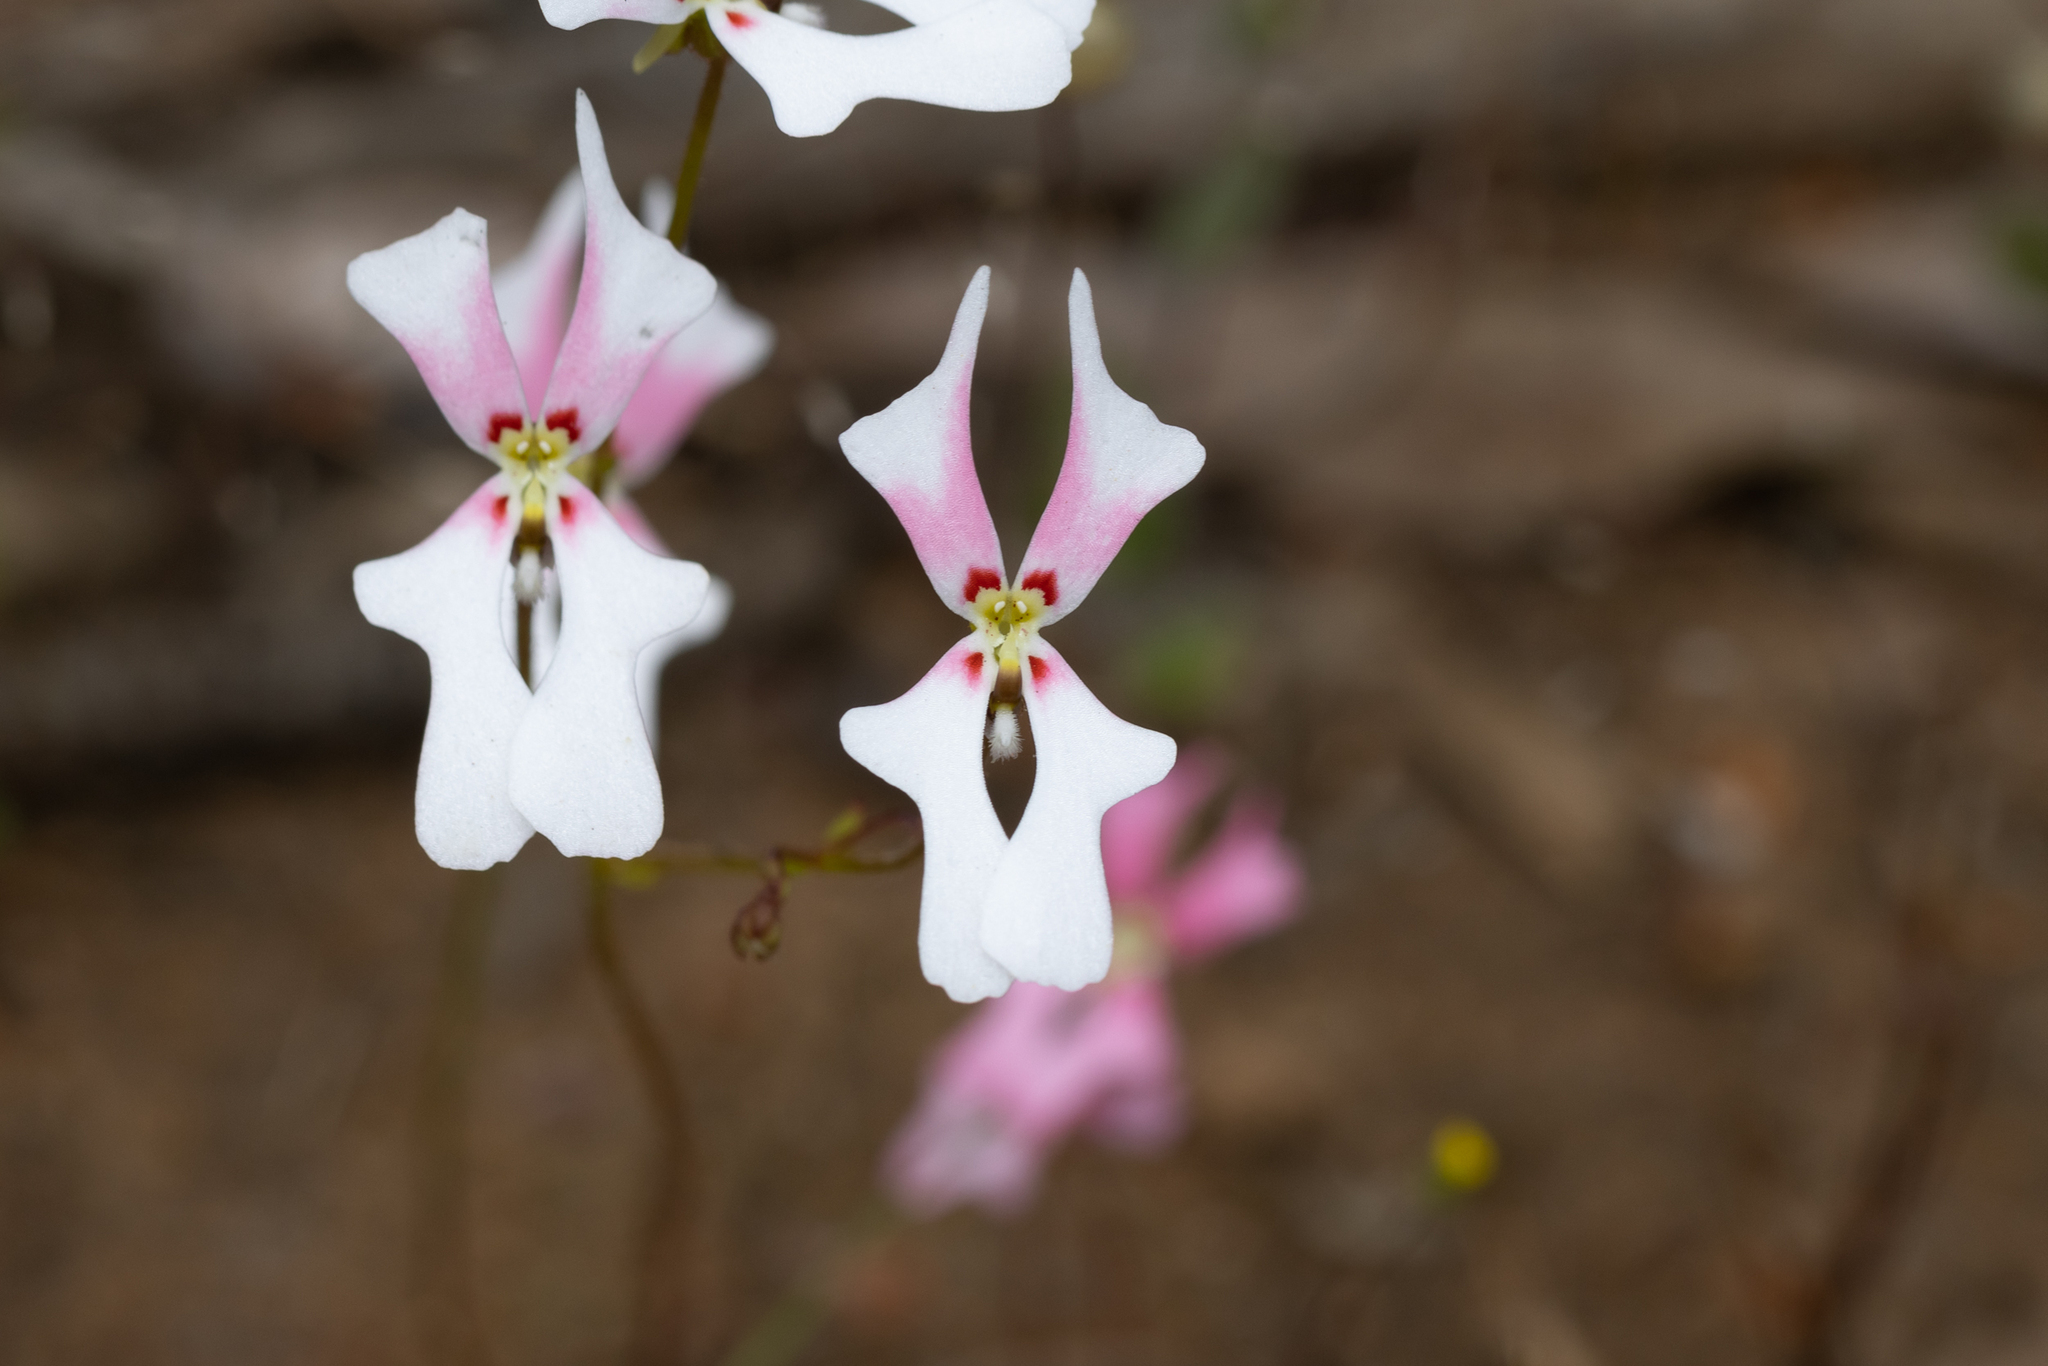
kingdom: Plantae
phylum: Tracheophyta
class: Magnoliopsida
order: Asterales
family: Stylidiaceae
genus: Stylidium
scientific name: Stylidium androsaceum
